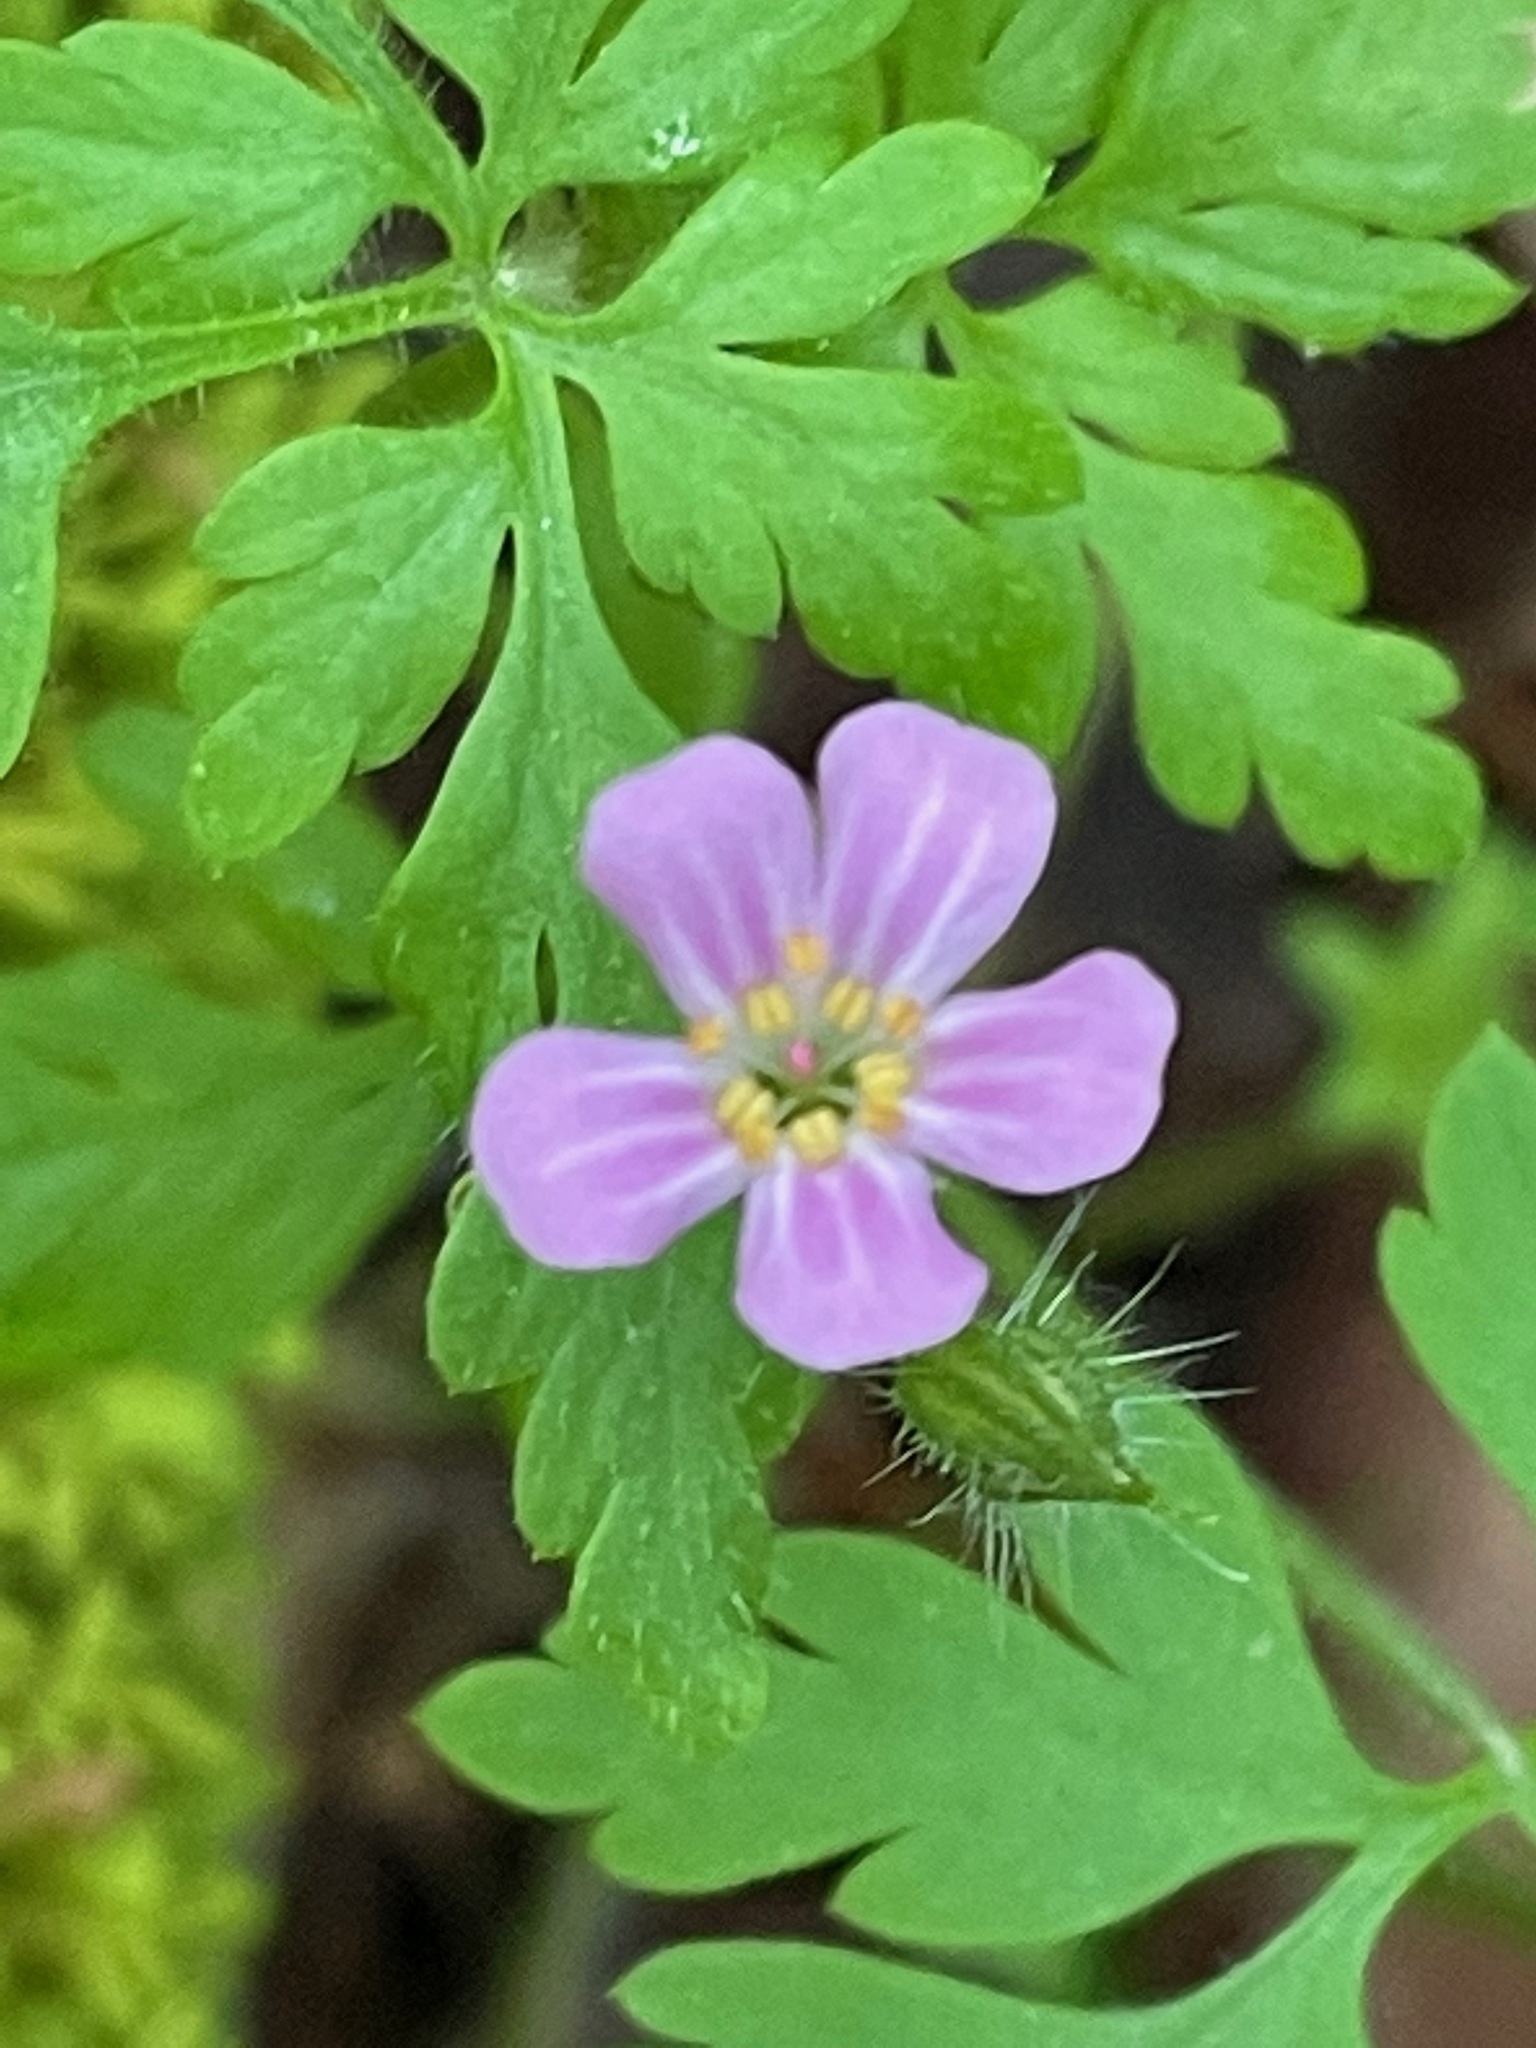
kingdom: Plantae
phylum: Tracheophyta
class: Magnoliopsida
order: Geraniales
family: Geraniaceae
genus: Geranium
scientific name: Geranium robertianum
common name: Herb-robert
